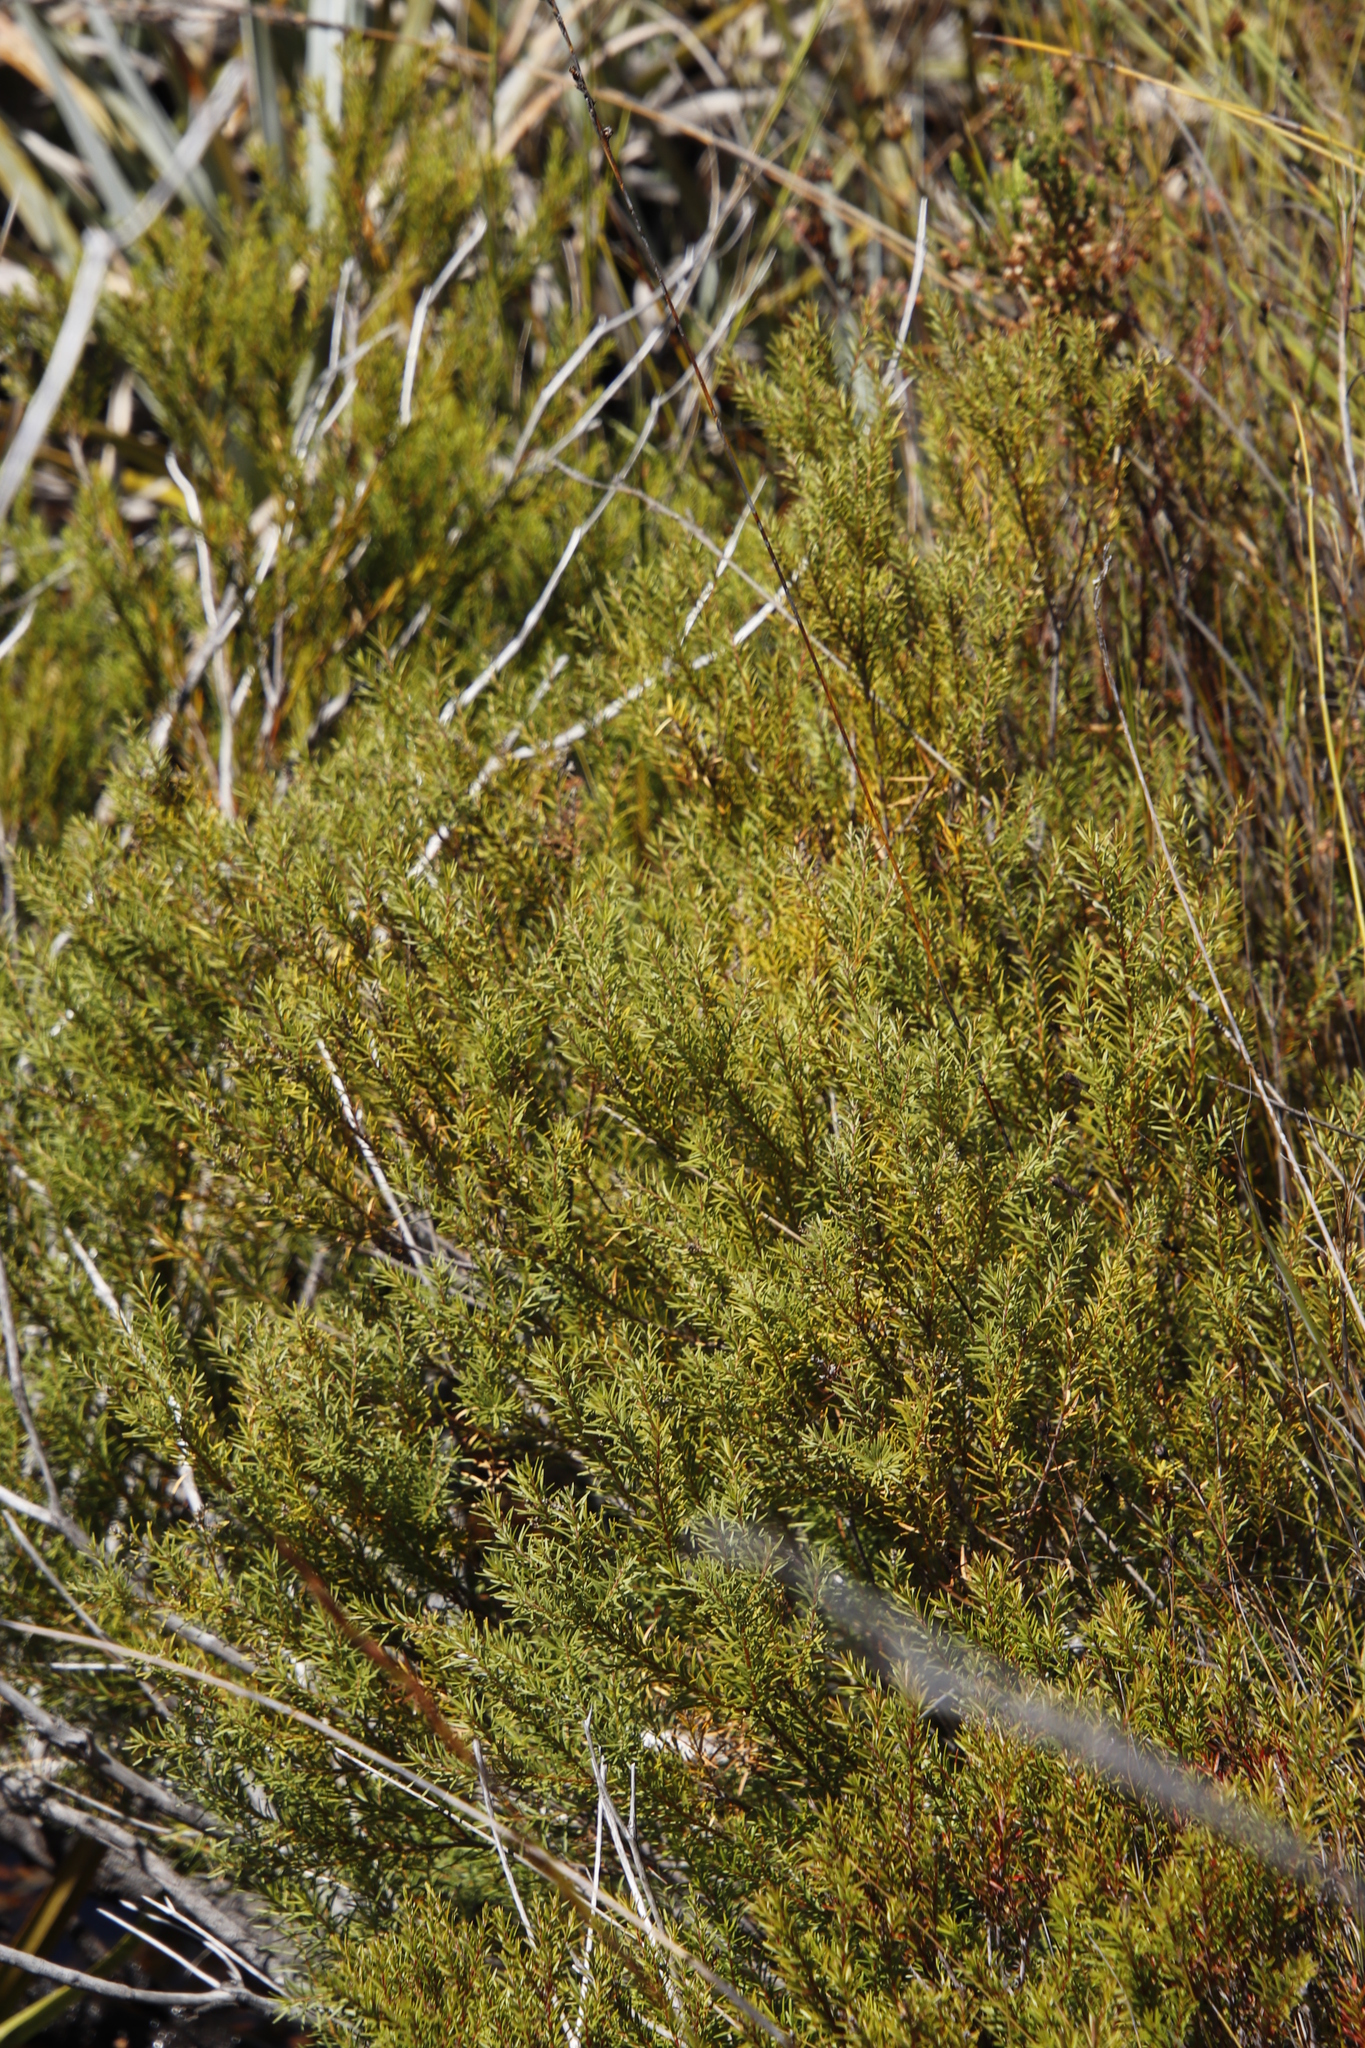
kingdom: Plantae
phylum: Tracheophyta
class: Magnoliopsida
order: Bruniales
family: Bruniaceae
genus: Brunia
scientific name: Brunia africana
